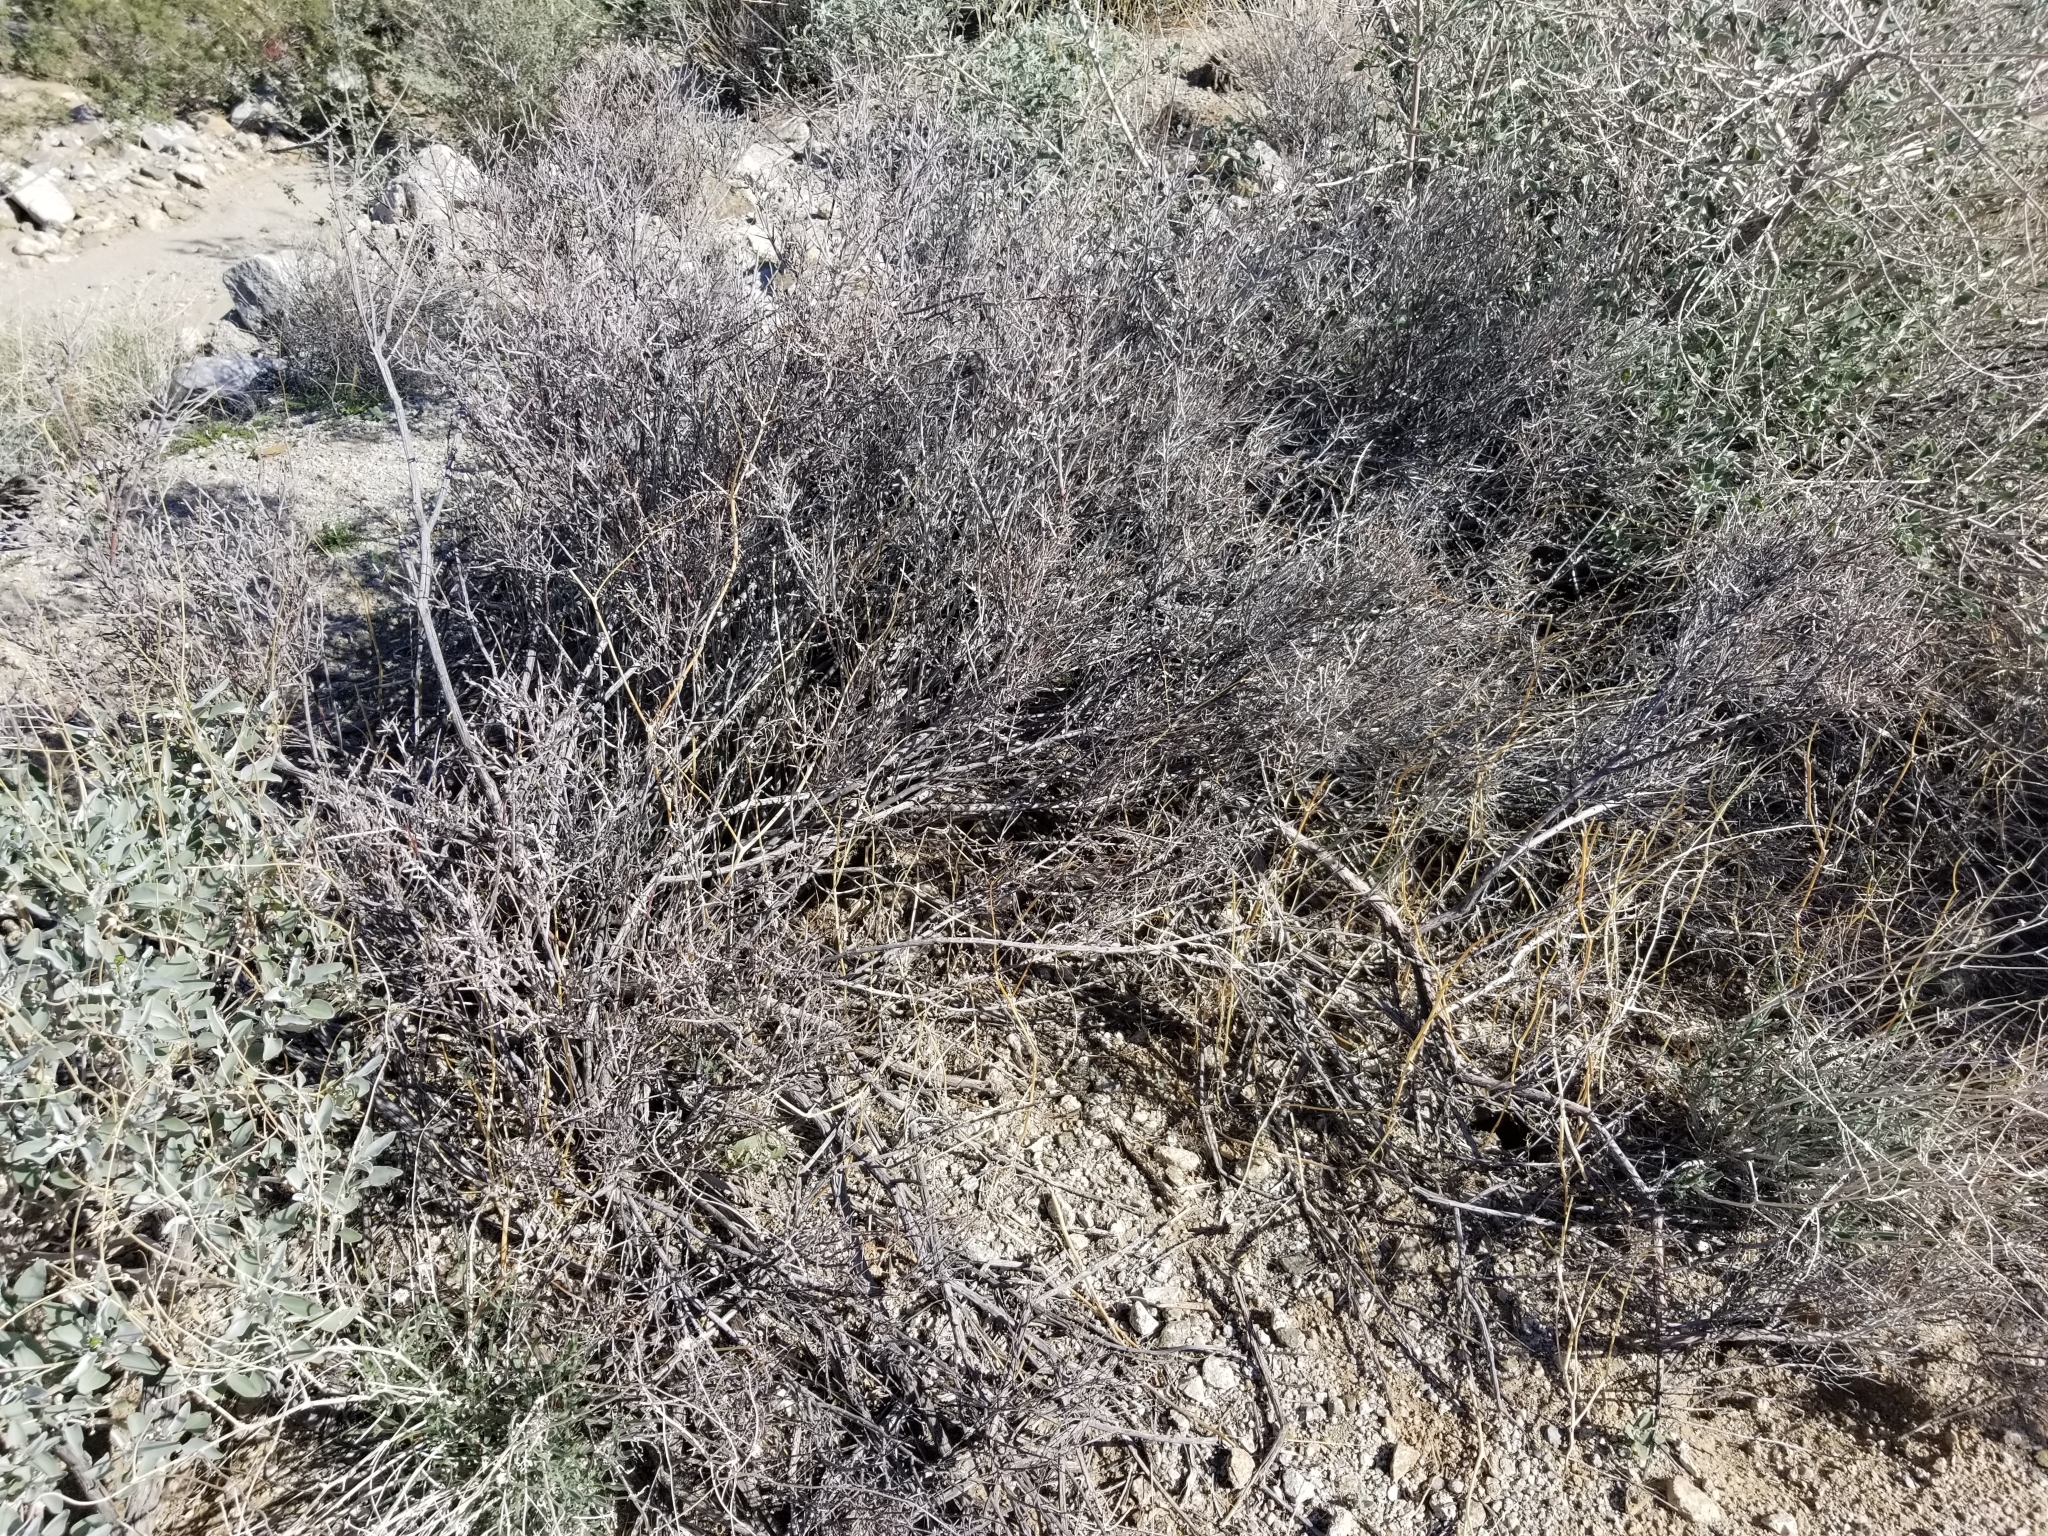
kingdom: Plantae
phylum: Tracheophyta
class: Magnoliopsida
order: Zygophyllales
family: Krameriaceae
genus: Krameria
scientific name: Krameria bicolor
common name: White ratany
